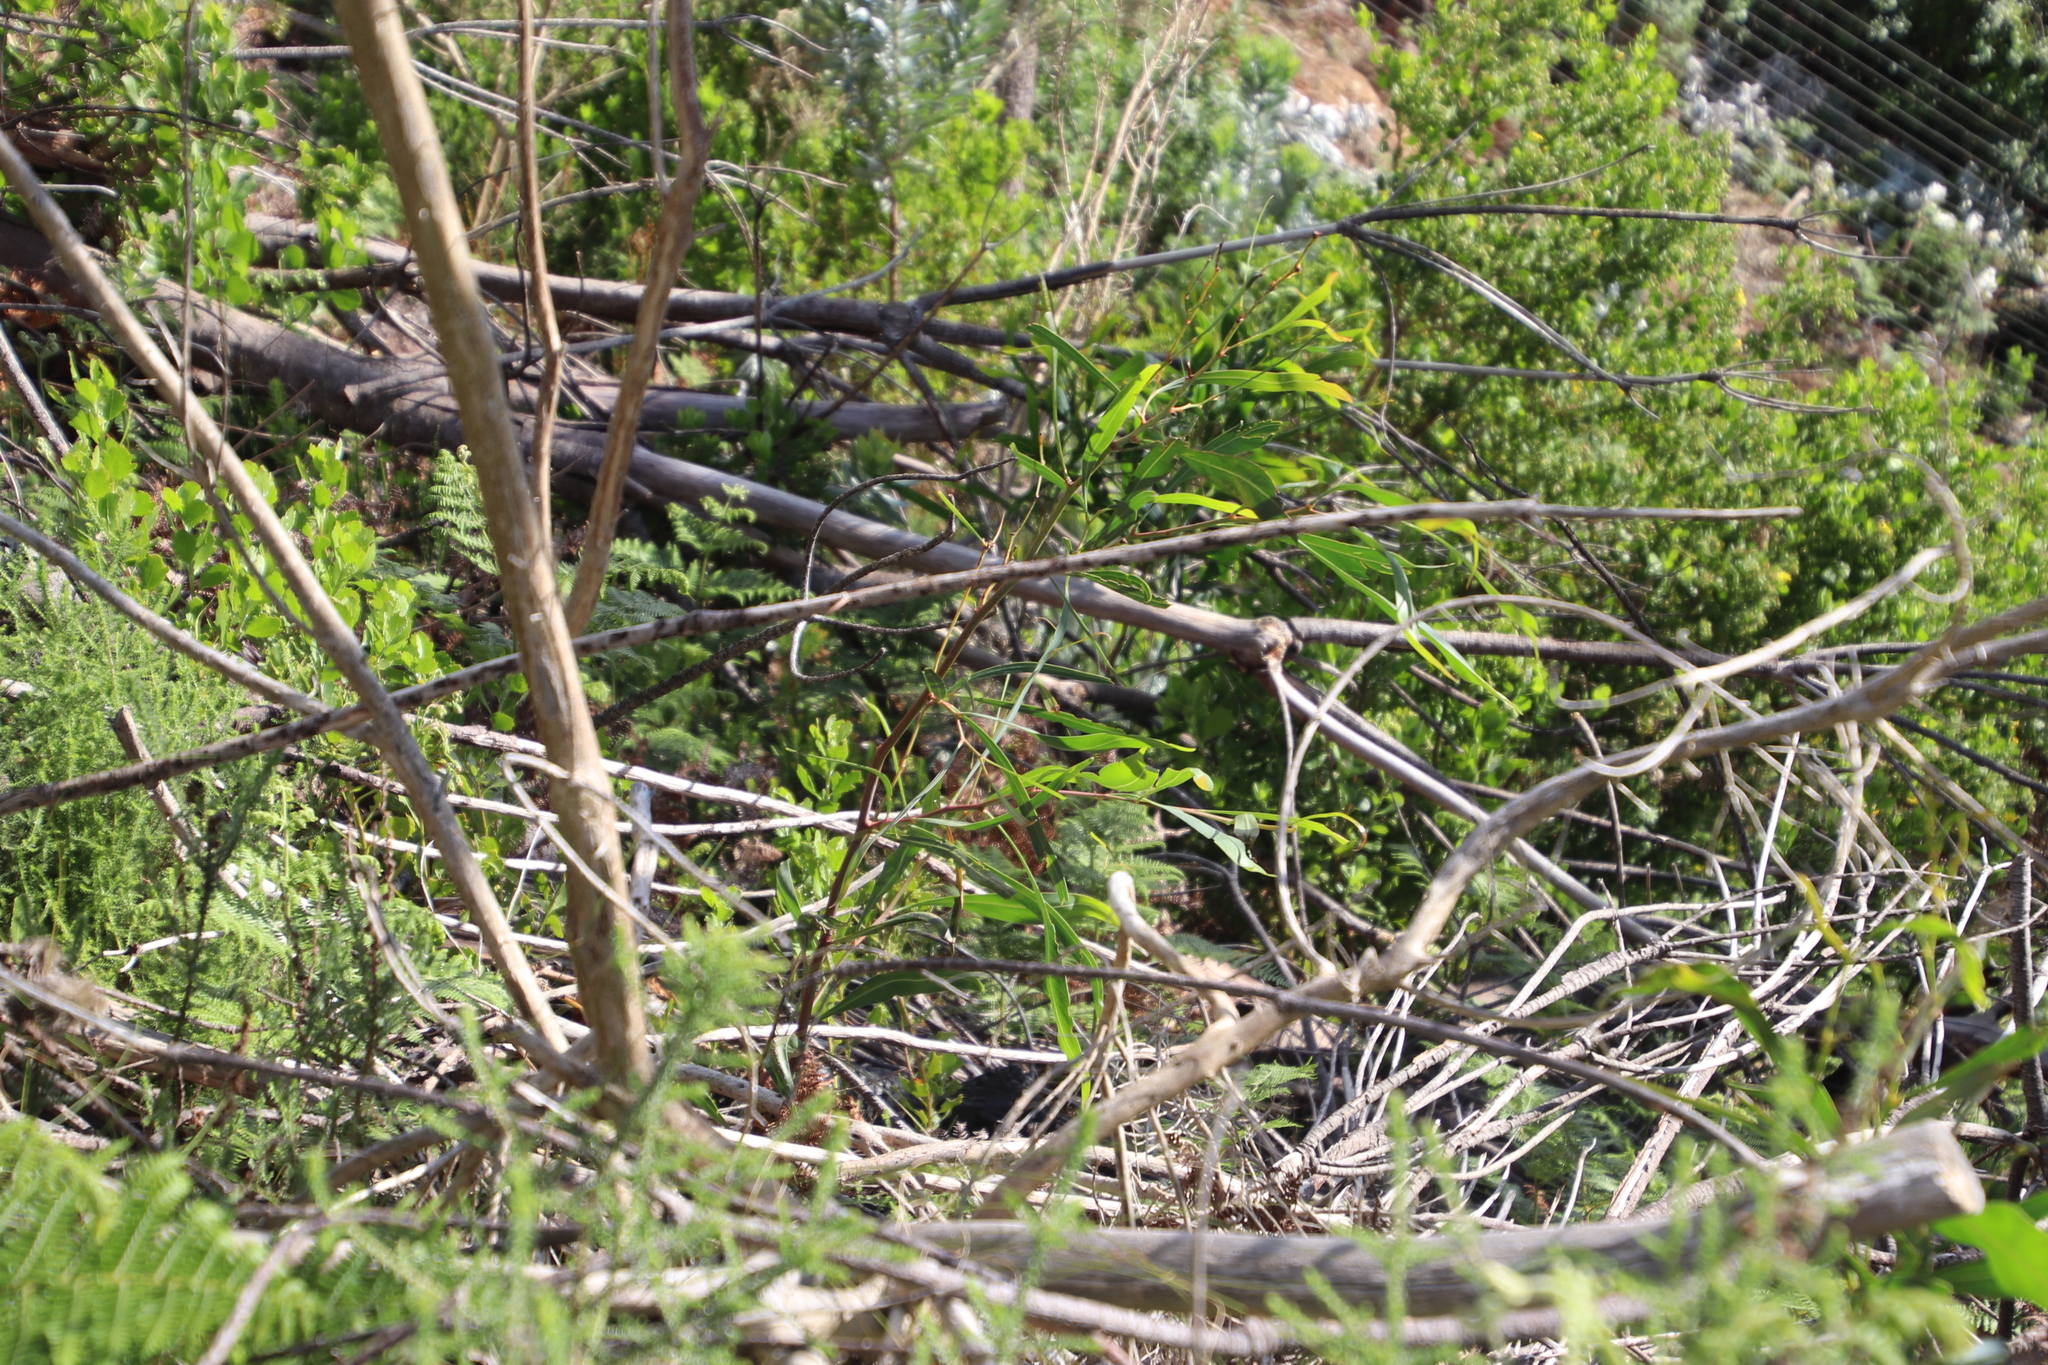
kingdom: Plantae
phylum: Tracheophyta
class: Magnoliopsida
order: Fabales
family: Fabaceae
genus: Acacia
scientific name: Acacia saligna
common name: Orange wattle
